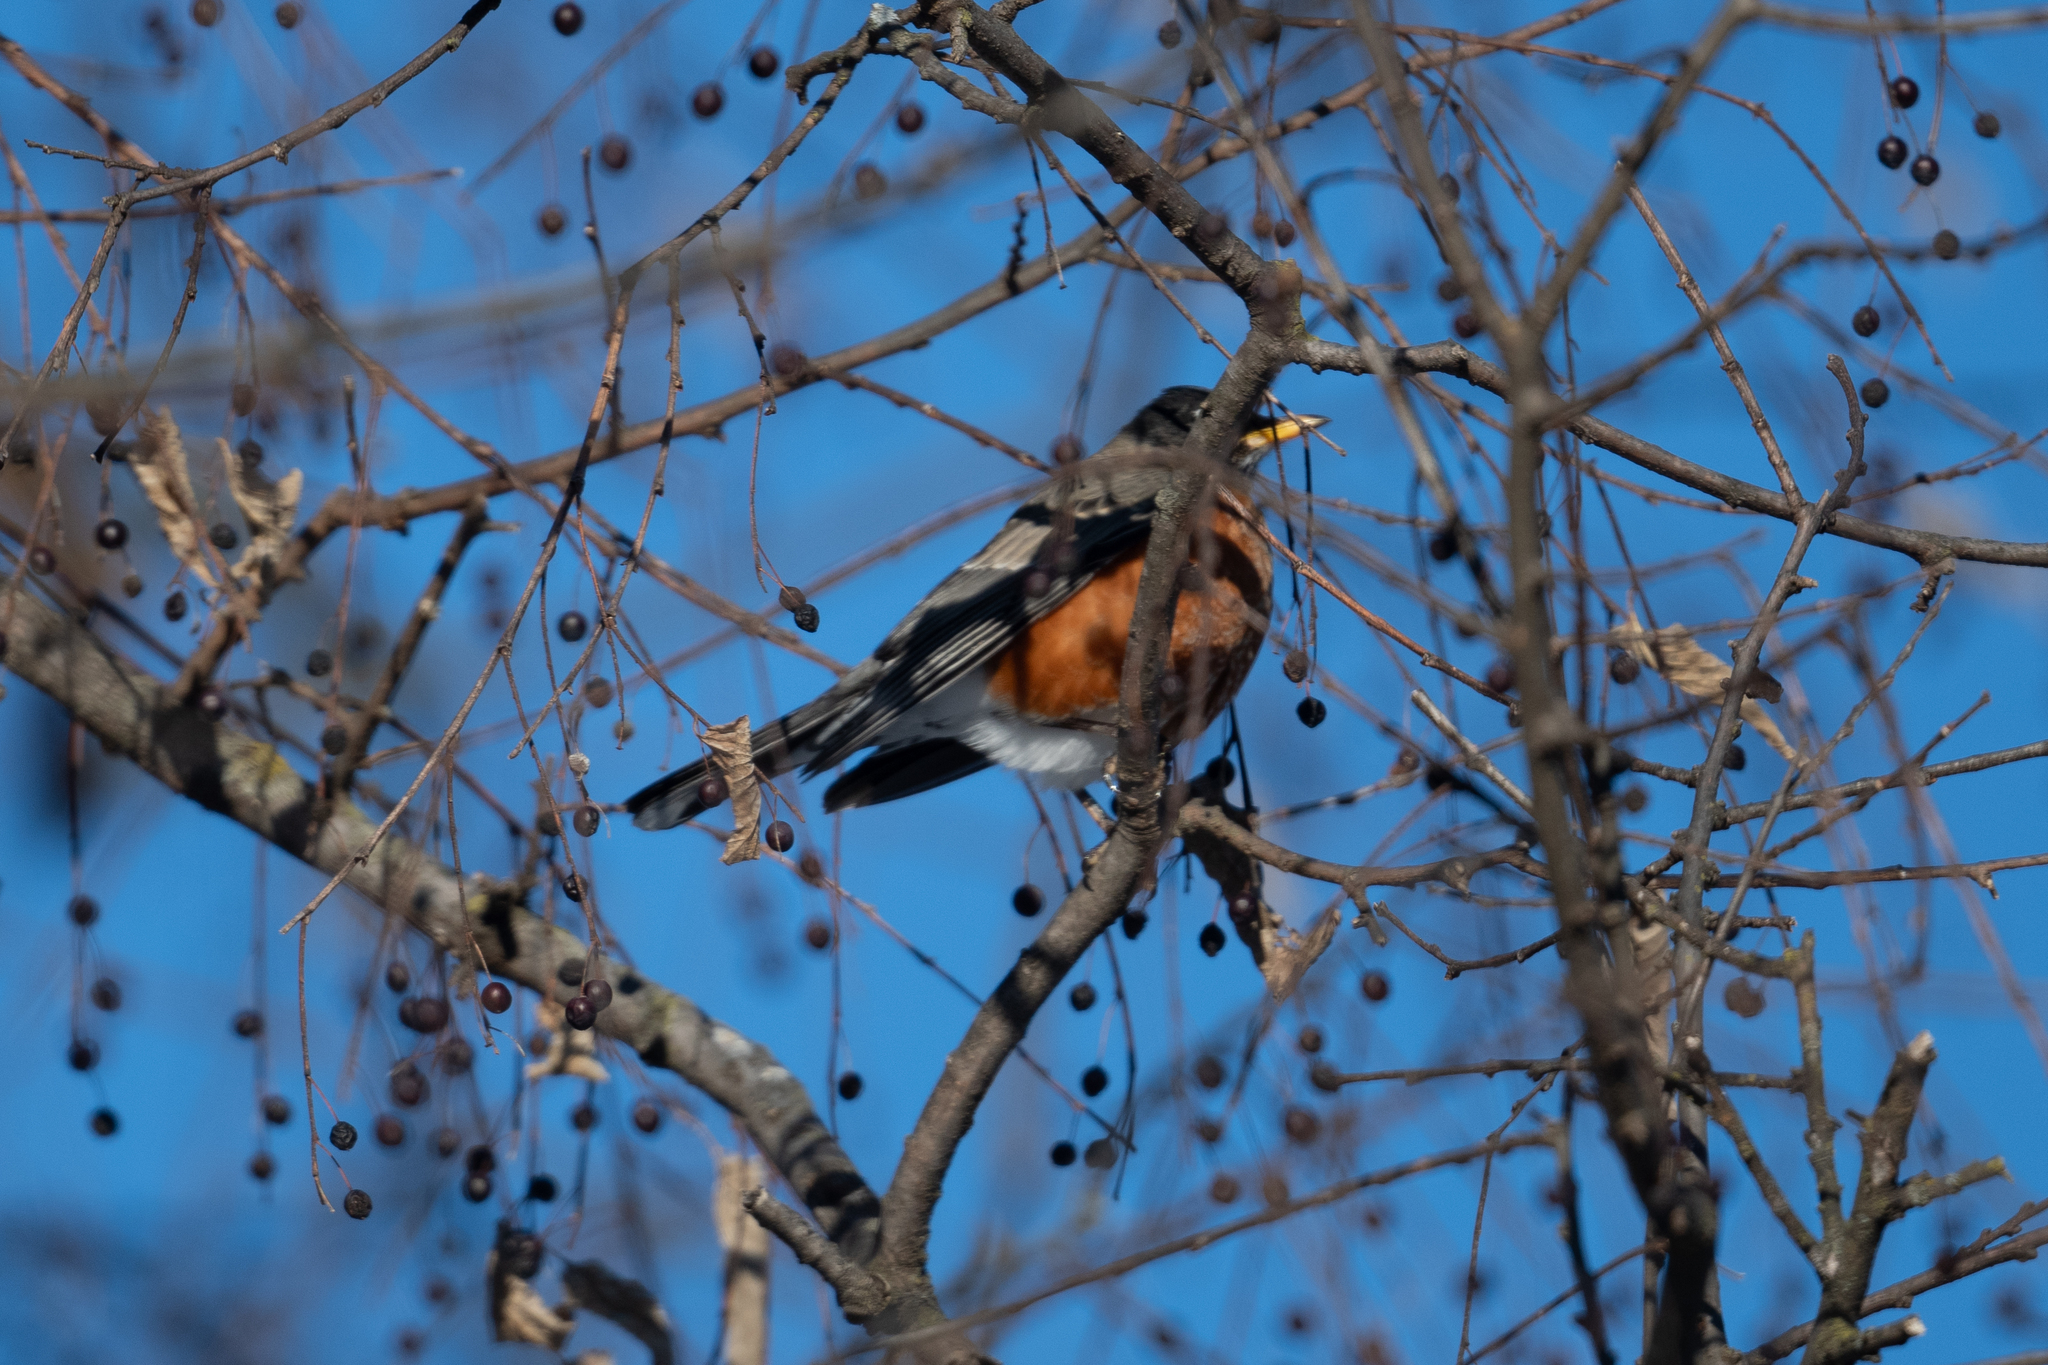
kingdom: Animalia
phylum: Chordata
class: Aves
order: Passeriformes
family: Turdidae
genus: Turdus
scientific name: Turdus migratorius
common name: American robin
